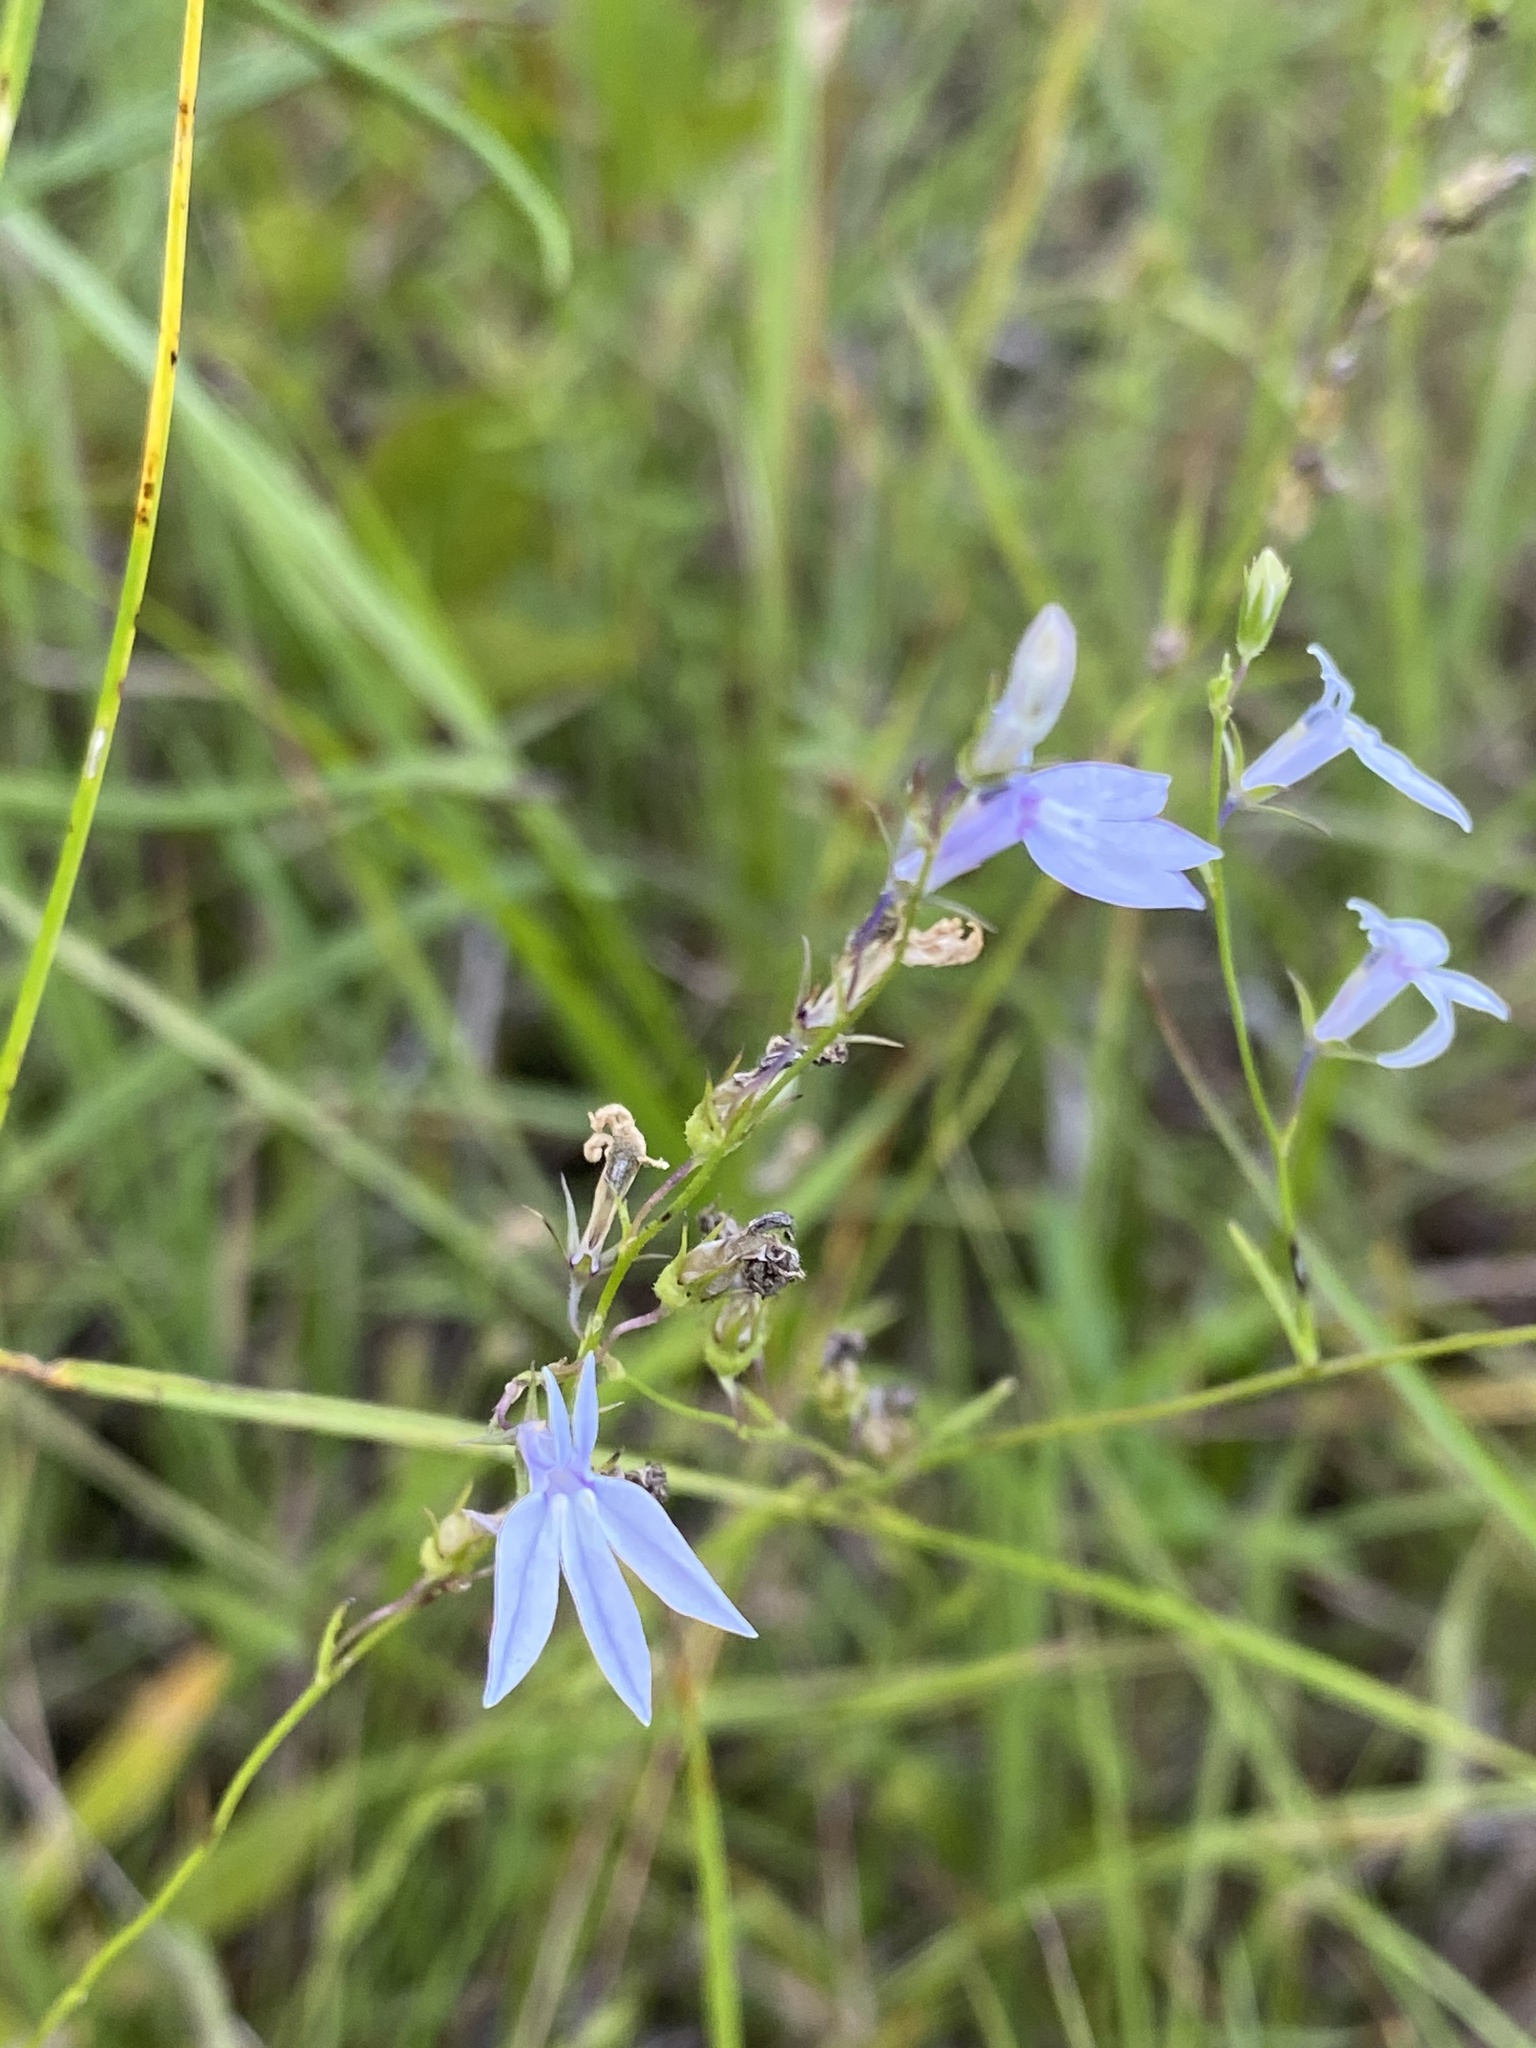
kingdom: Plantae
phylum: Tracheophyta
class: Magnoliopsida
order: Asterales
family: Campanulaceae
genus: Lobelia
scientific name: Lobelia nuttallii
